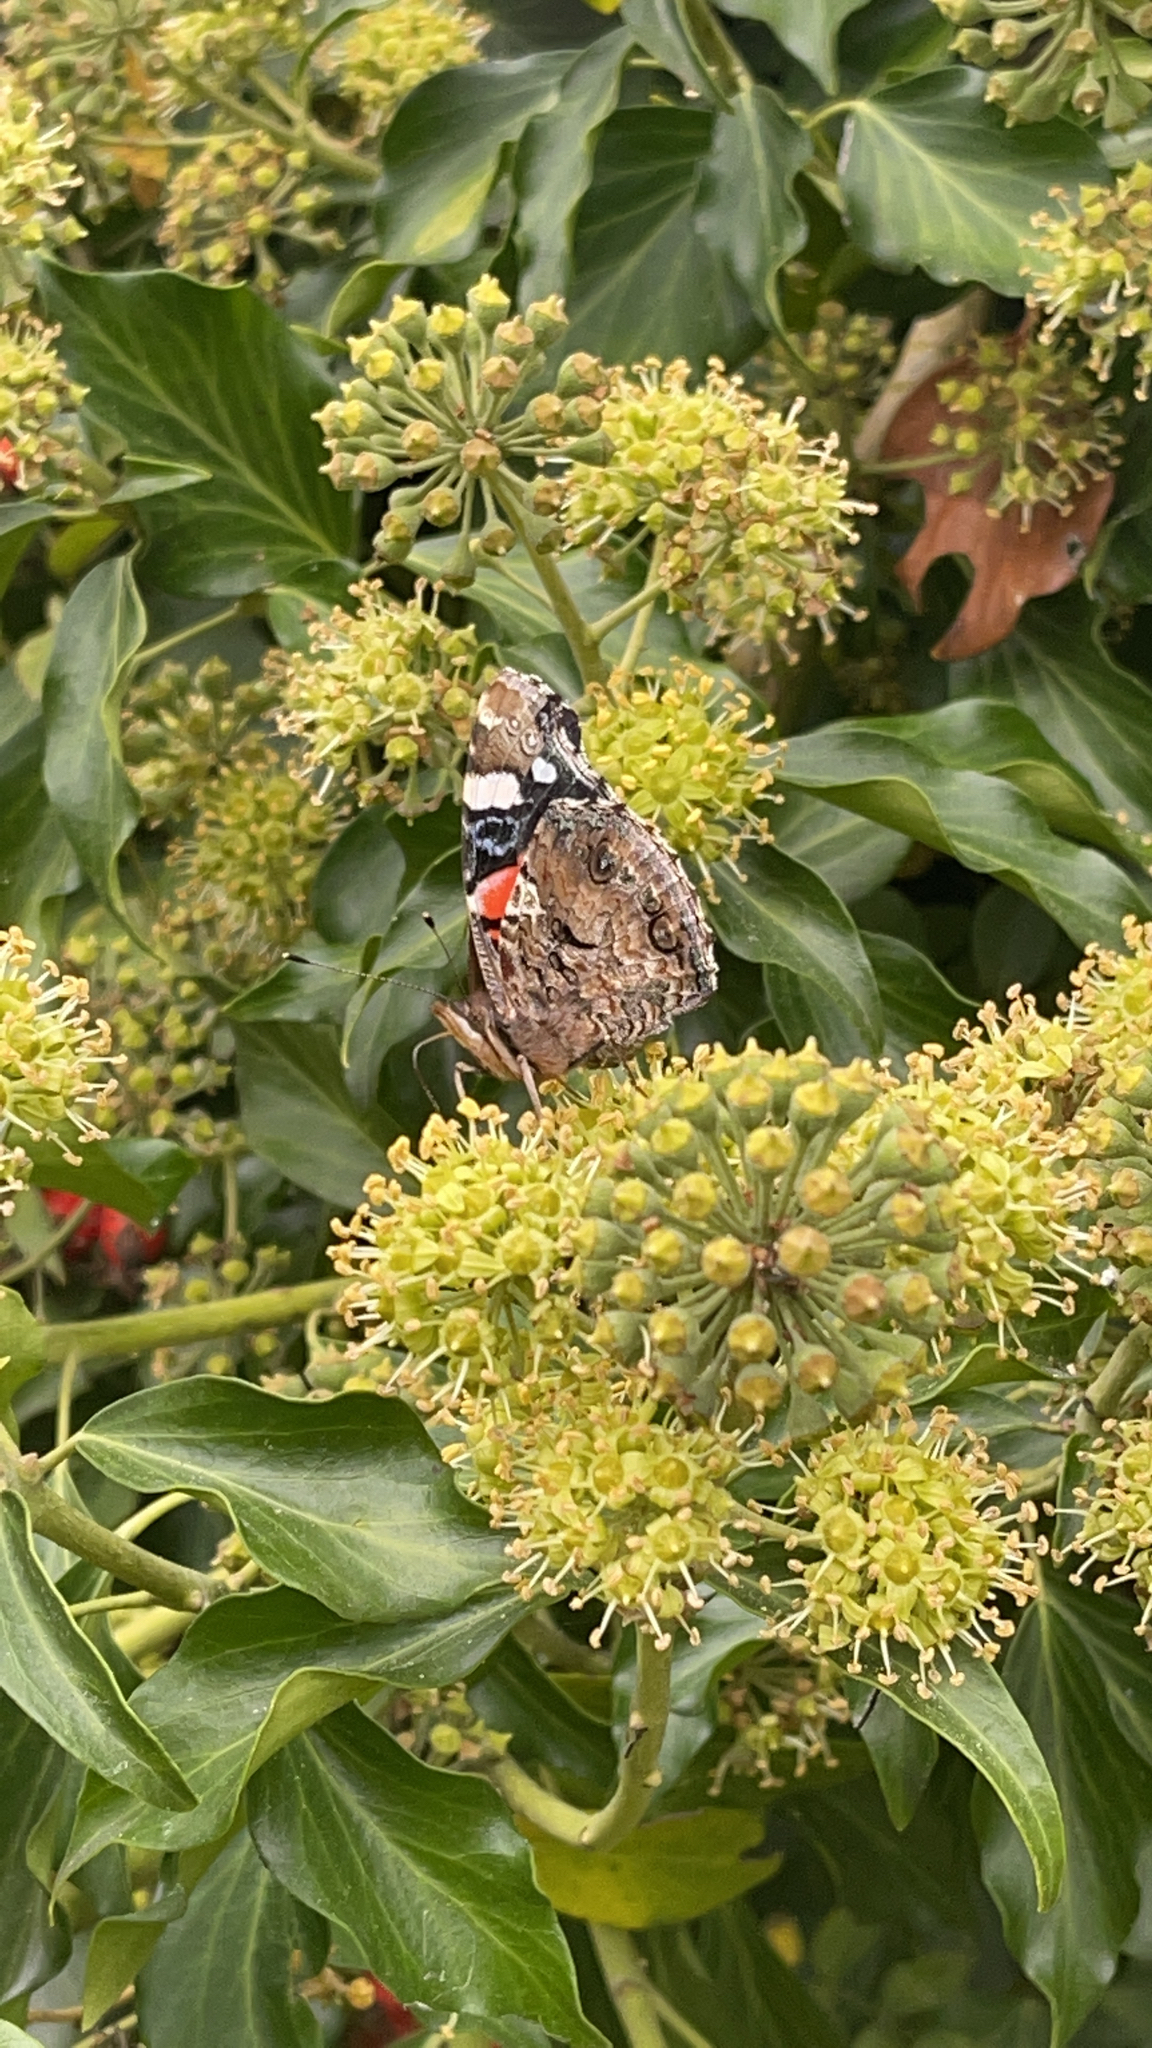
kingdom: Animalia
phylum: Arthropoda
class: Insecta
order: Lepidoptera
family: Nymphalidae
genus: Vanessa
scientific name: Vanessa atalanta
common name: Red admiral
